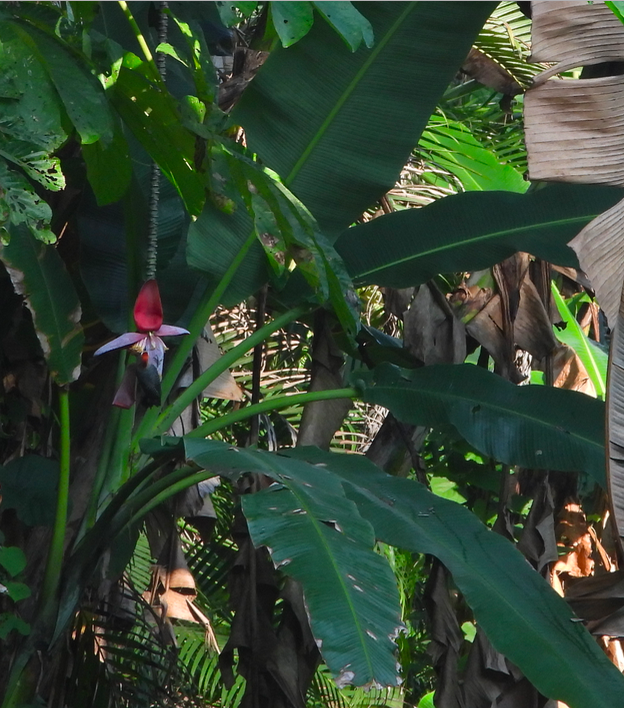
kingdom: Plantae
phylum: Tracheophyta
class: Liliopsida
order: Zingiberales
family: Musaceae
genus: Musa
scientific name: Musa balbisiana
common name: Plantain
